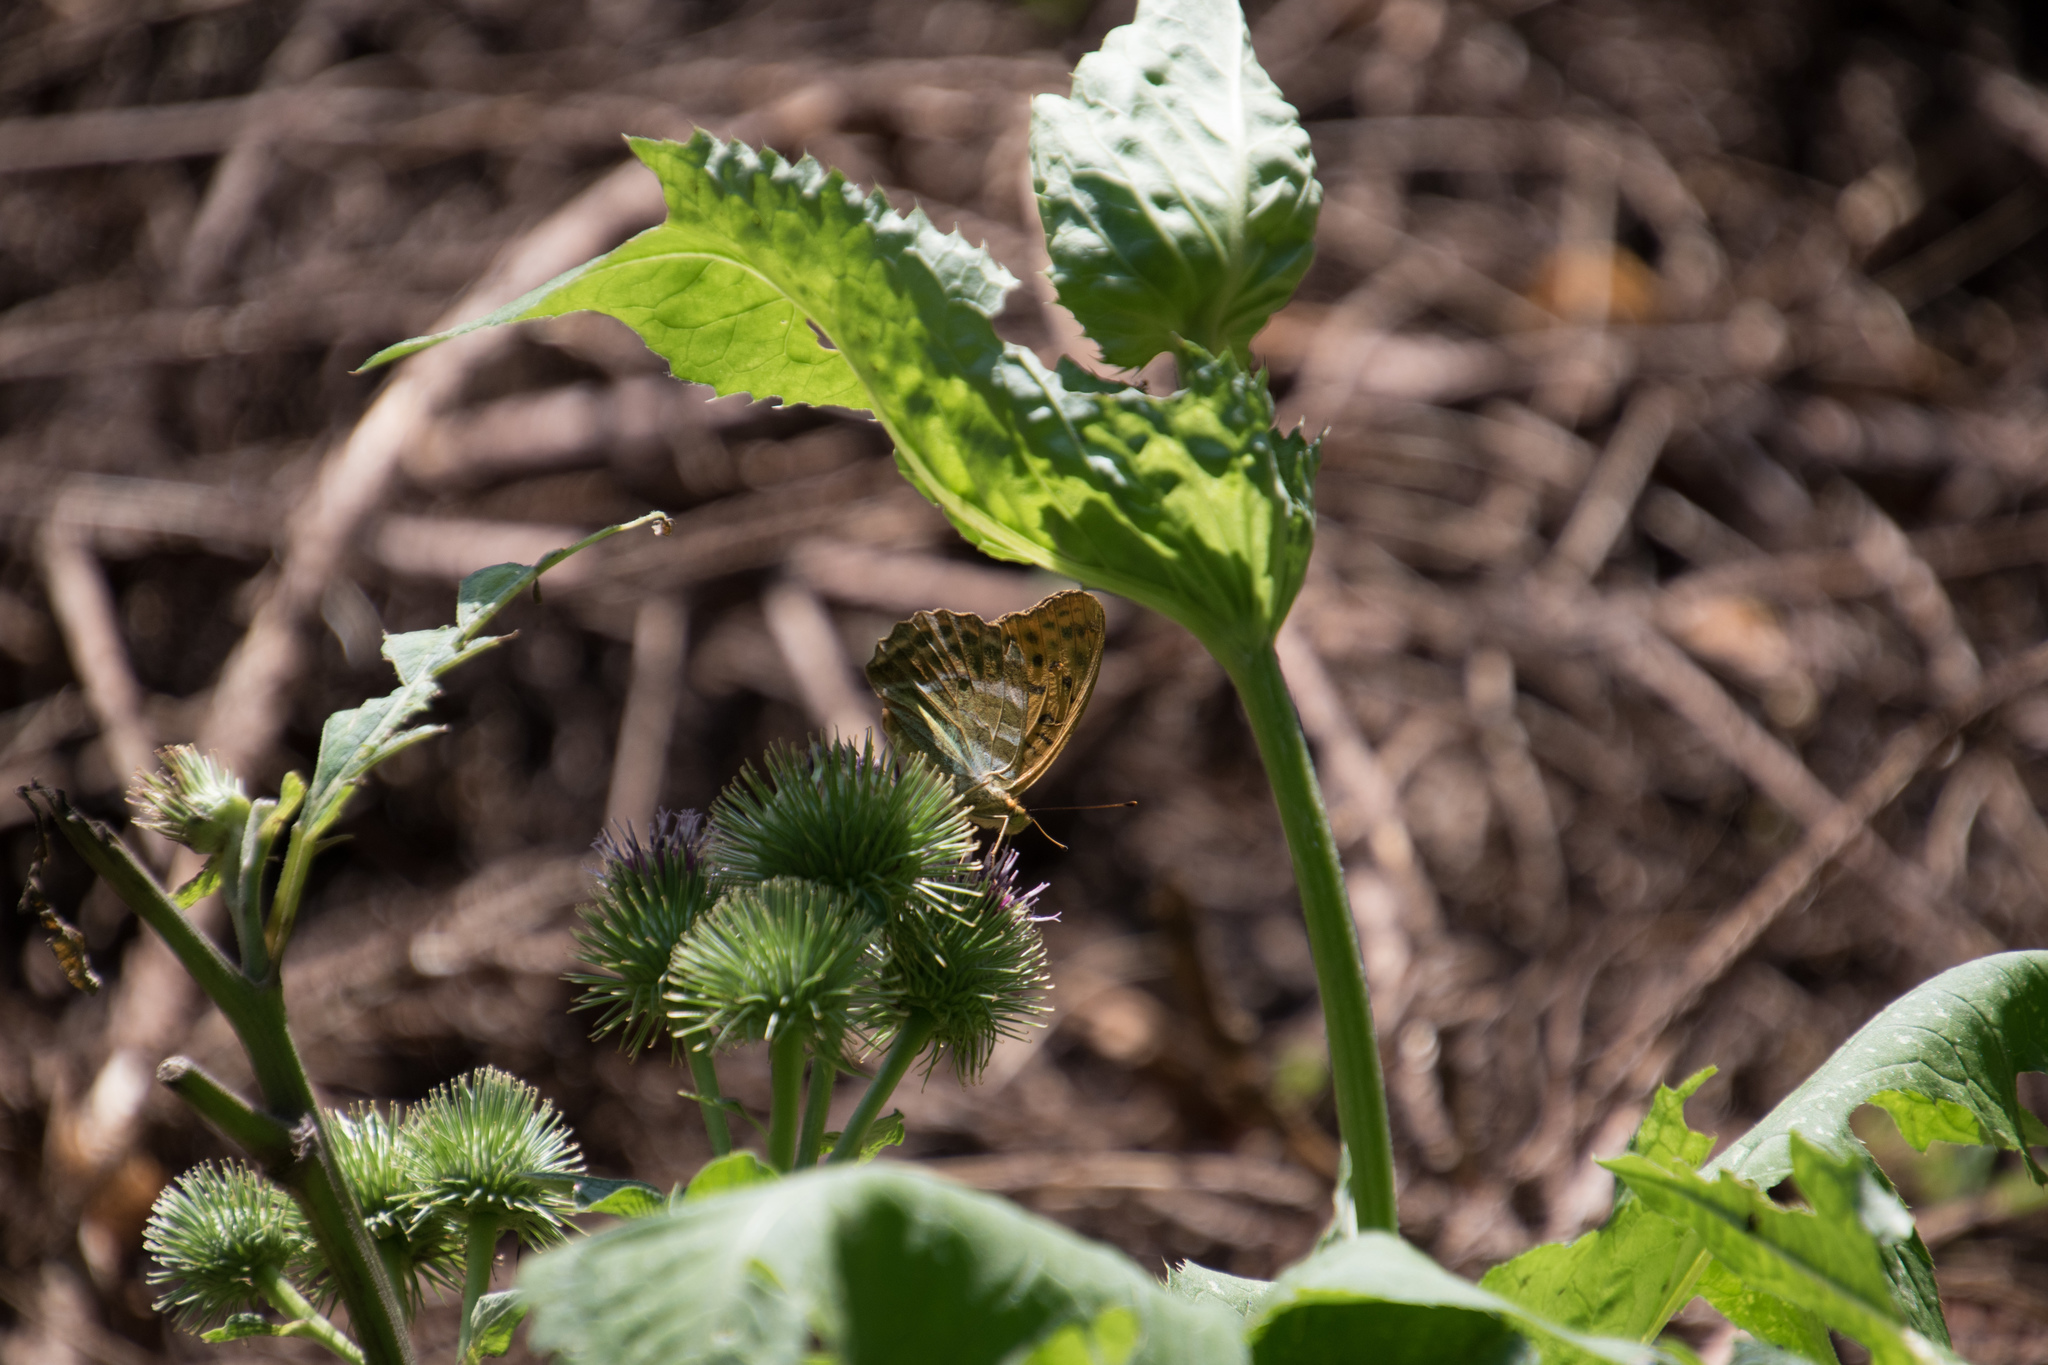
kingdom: Animalia
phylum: Arthropoda
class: Insecta
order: Lepidoptera
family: Nymphalidae
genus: Argynnis
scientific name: Argynnis paphia
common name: Silver-washed fritillary
